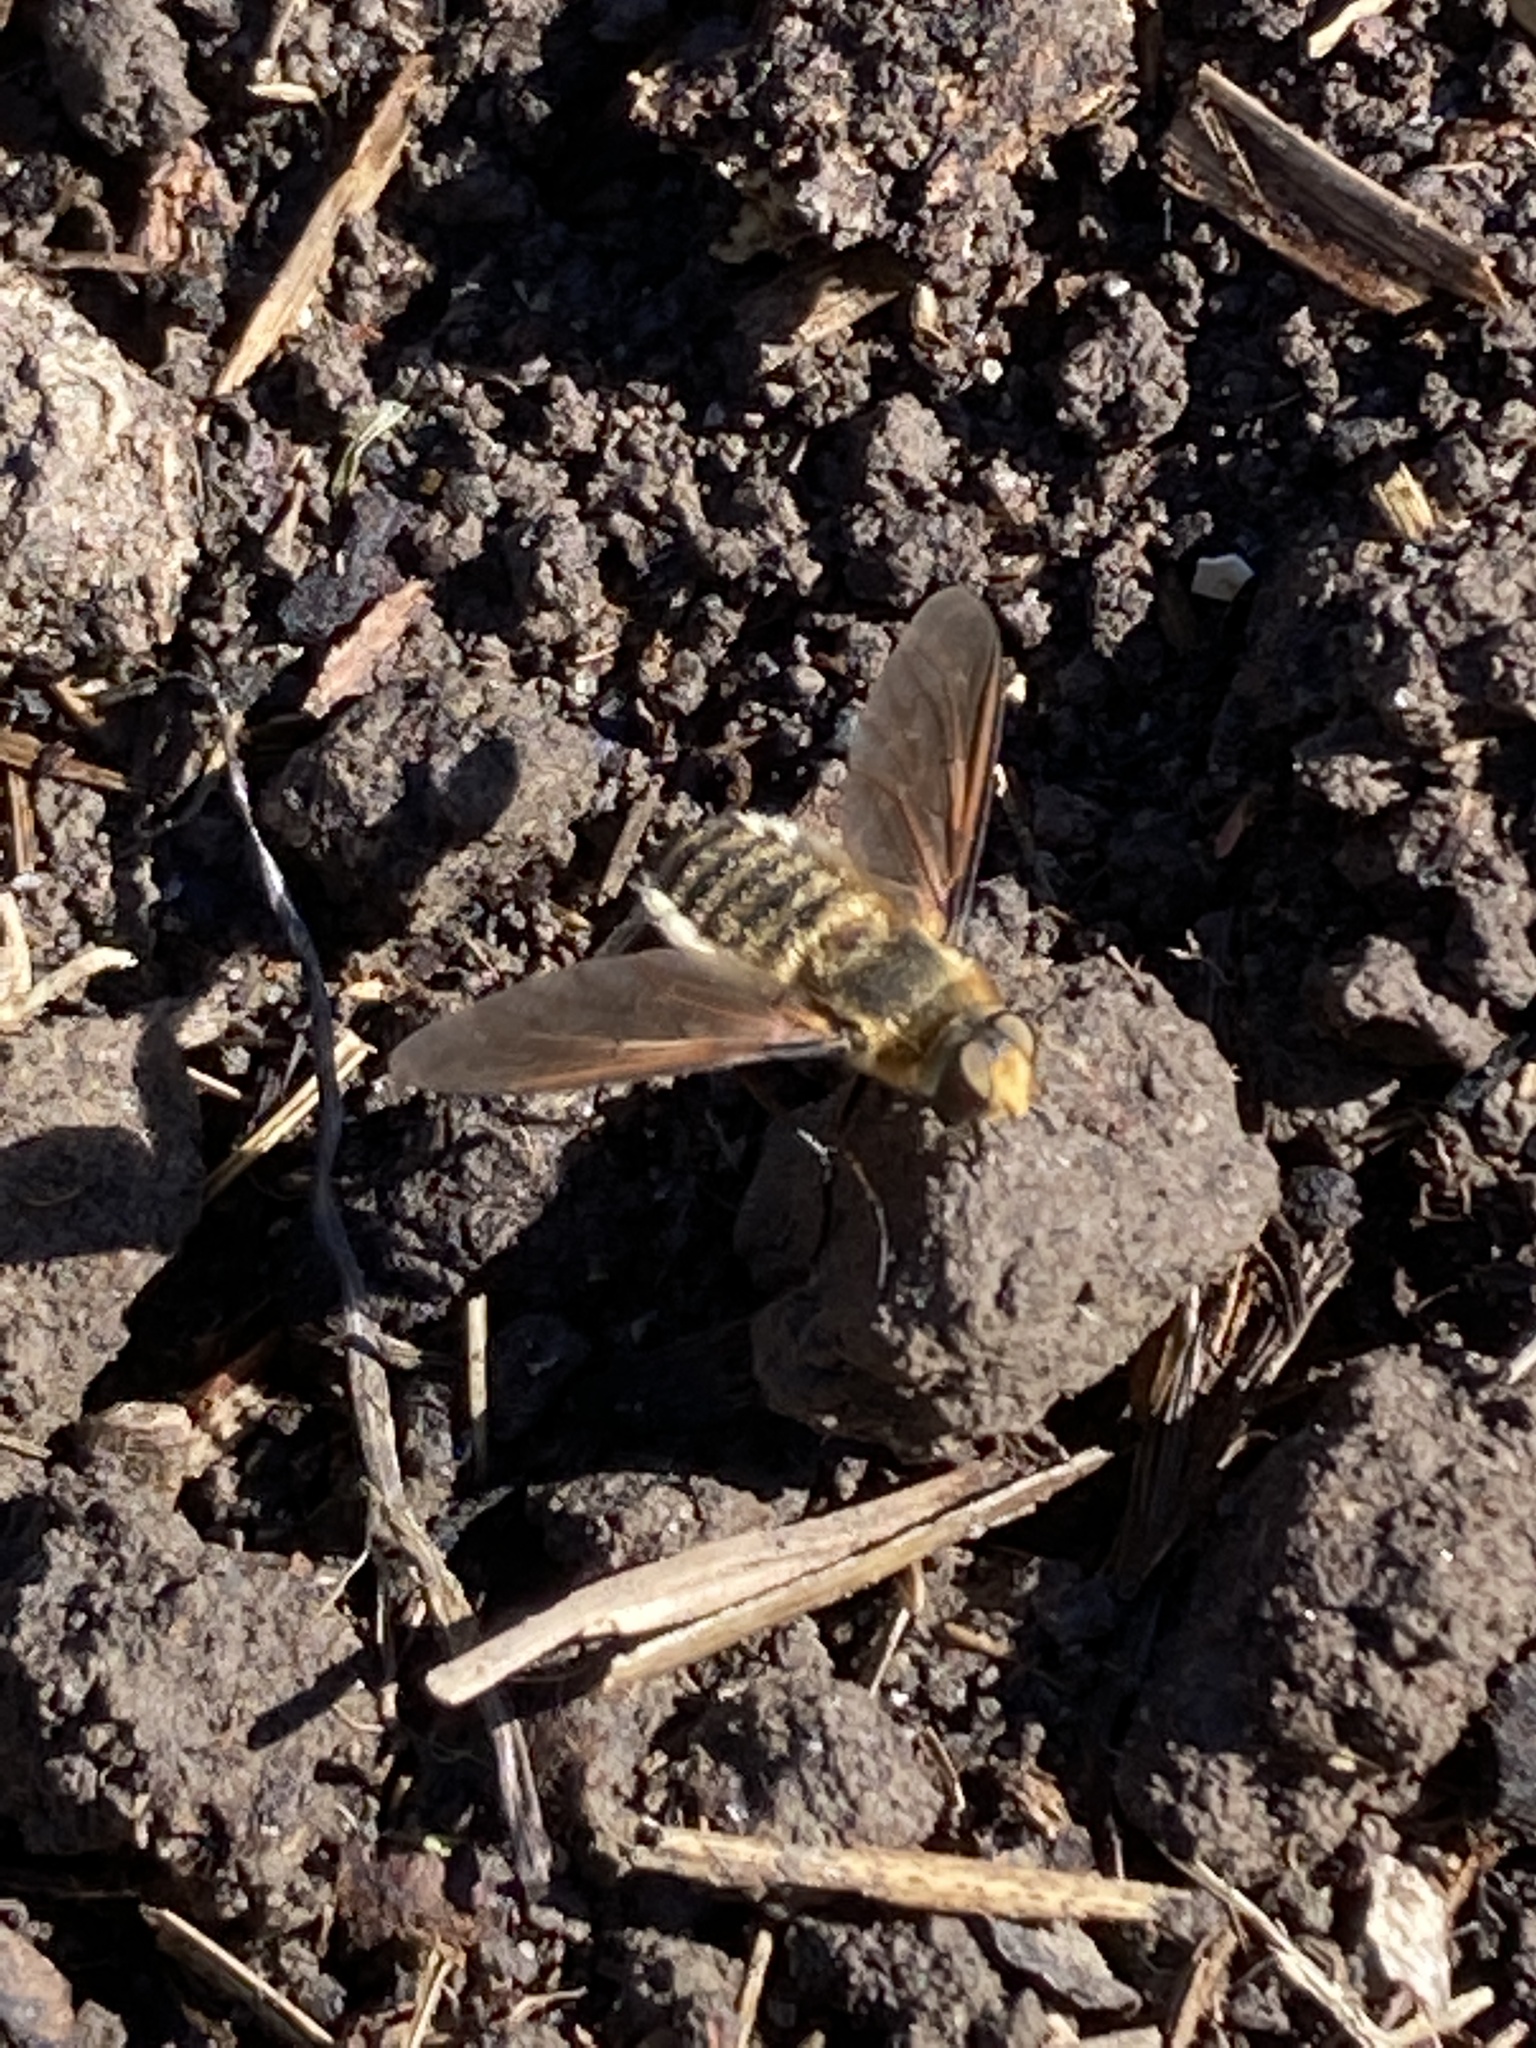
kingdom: Animalia
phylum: Arthropoda
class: Insecta
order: Diptera
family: Bombyliidae
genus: Poecilanthrax
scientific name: Poecilanthrax lucifer
